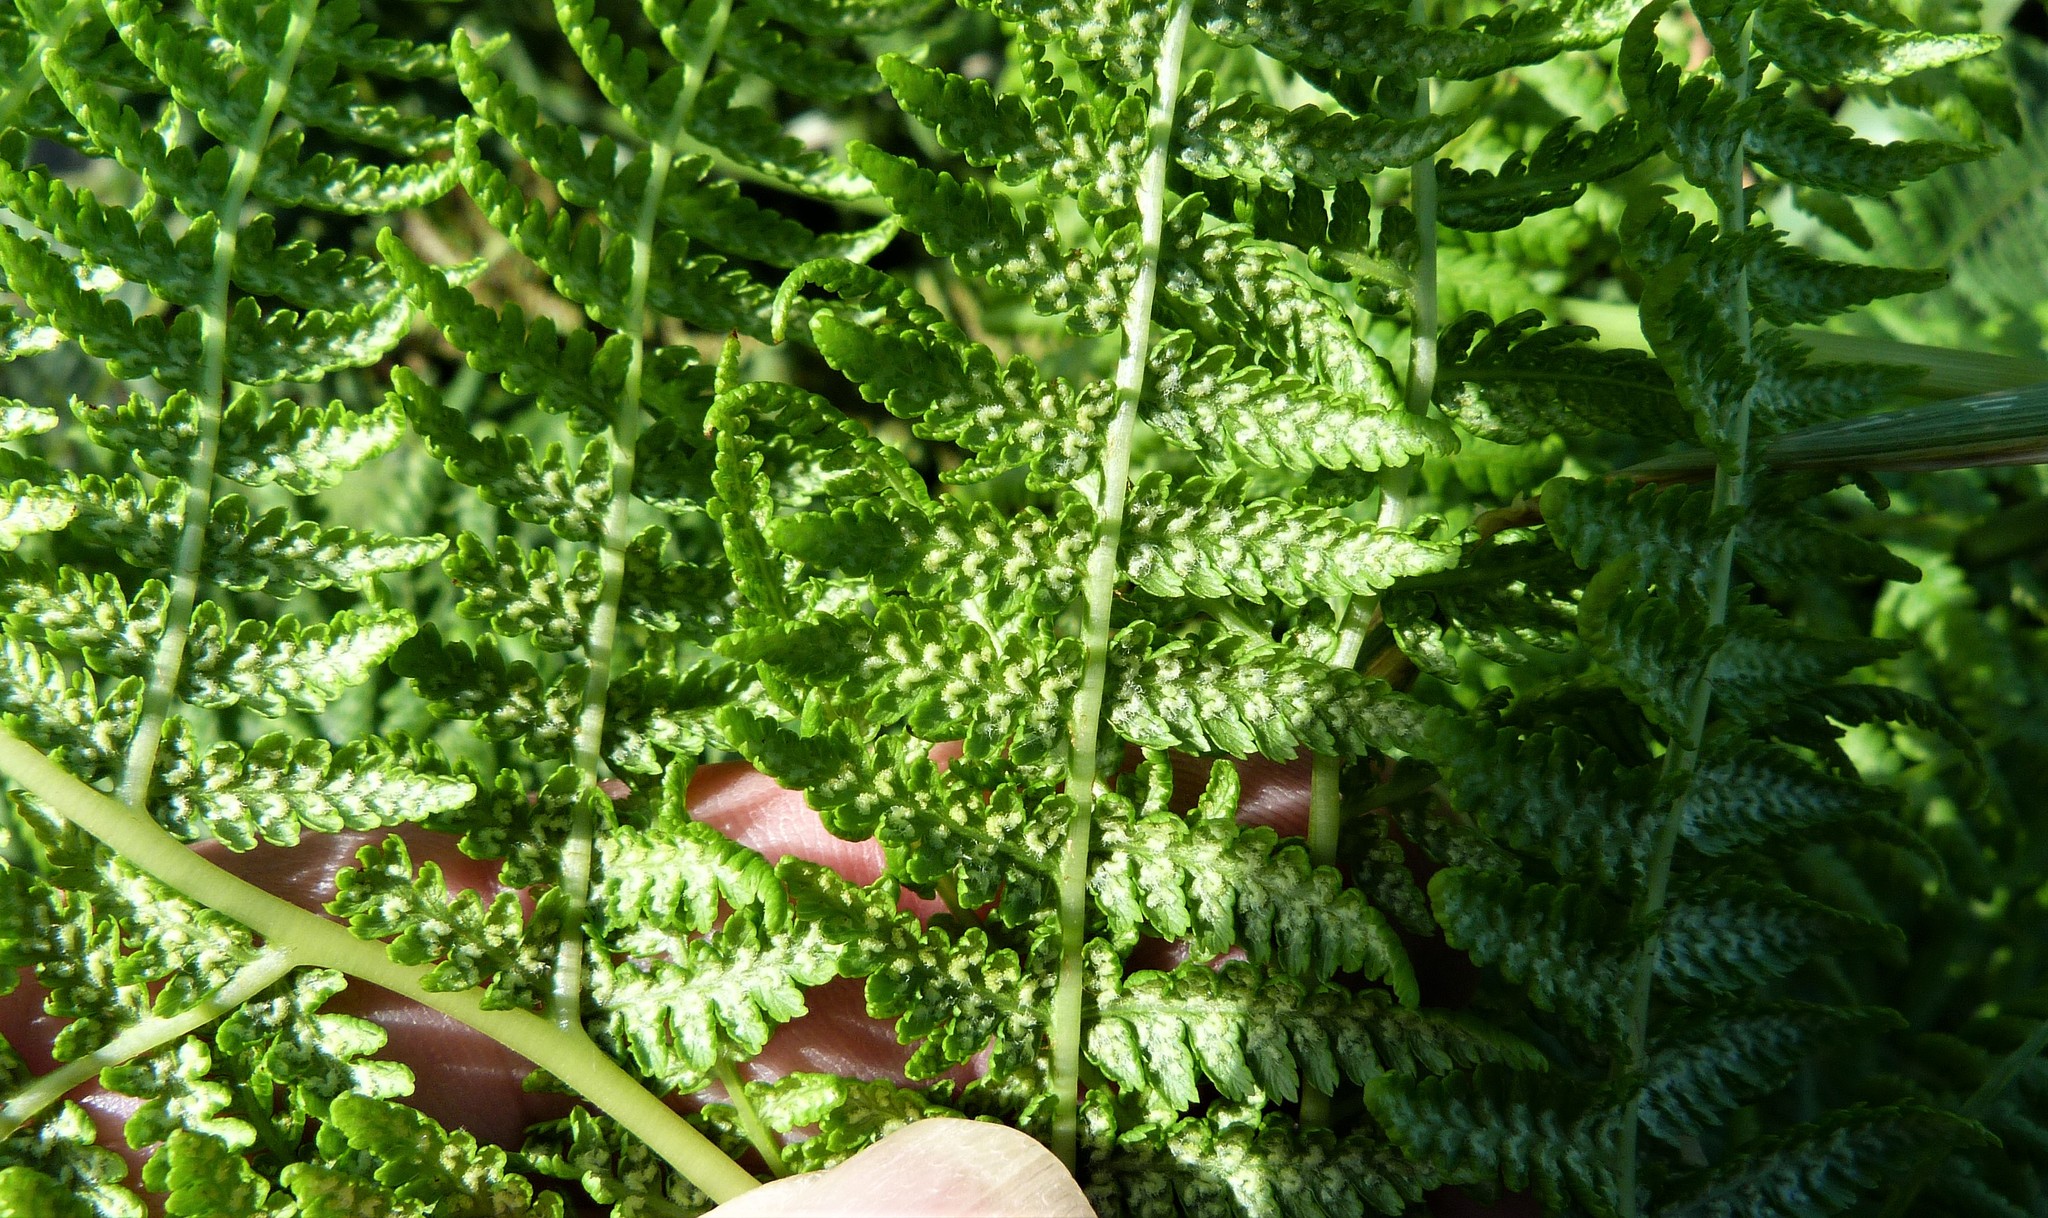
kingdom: Plantae
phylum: Tracheophyta
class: Polypodiopsida
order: Polypodiales
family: Athyriaceae
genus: Athyrium
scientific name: Athyrium filix-femina
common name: Lady fern
